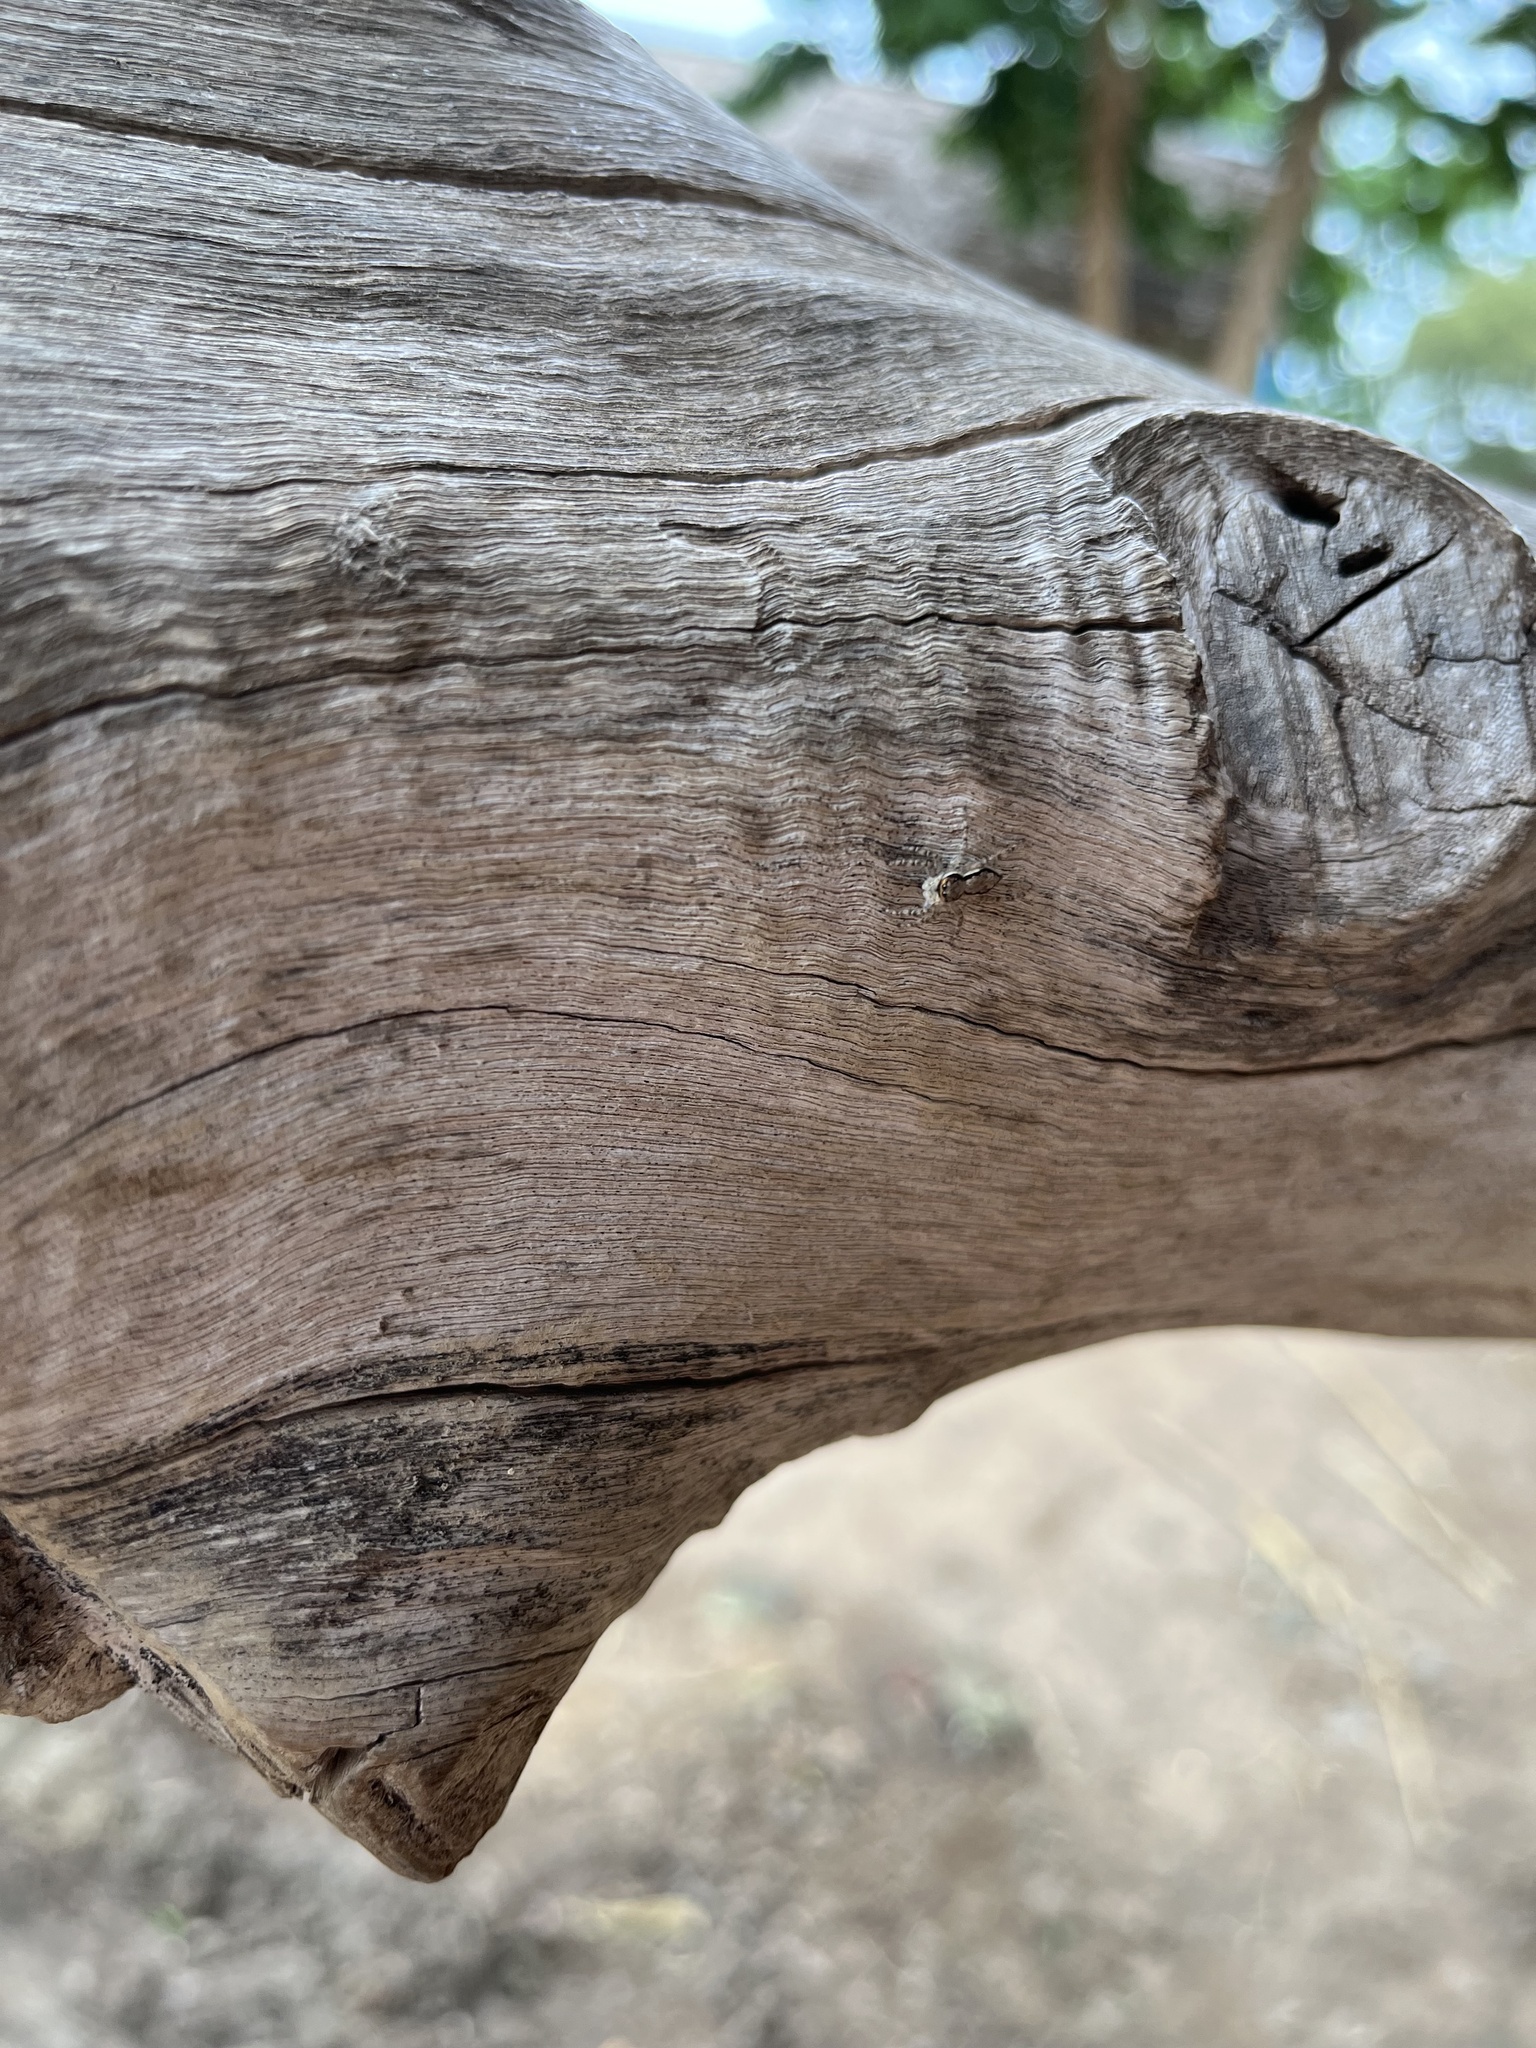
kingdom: Animalia
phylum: Arthropoda
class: Arachnida
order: Araneae
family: Salticidae
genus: Menemerus
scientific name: Menemerus bivittatus
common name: Gray wall jumper
